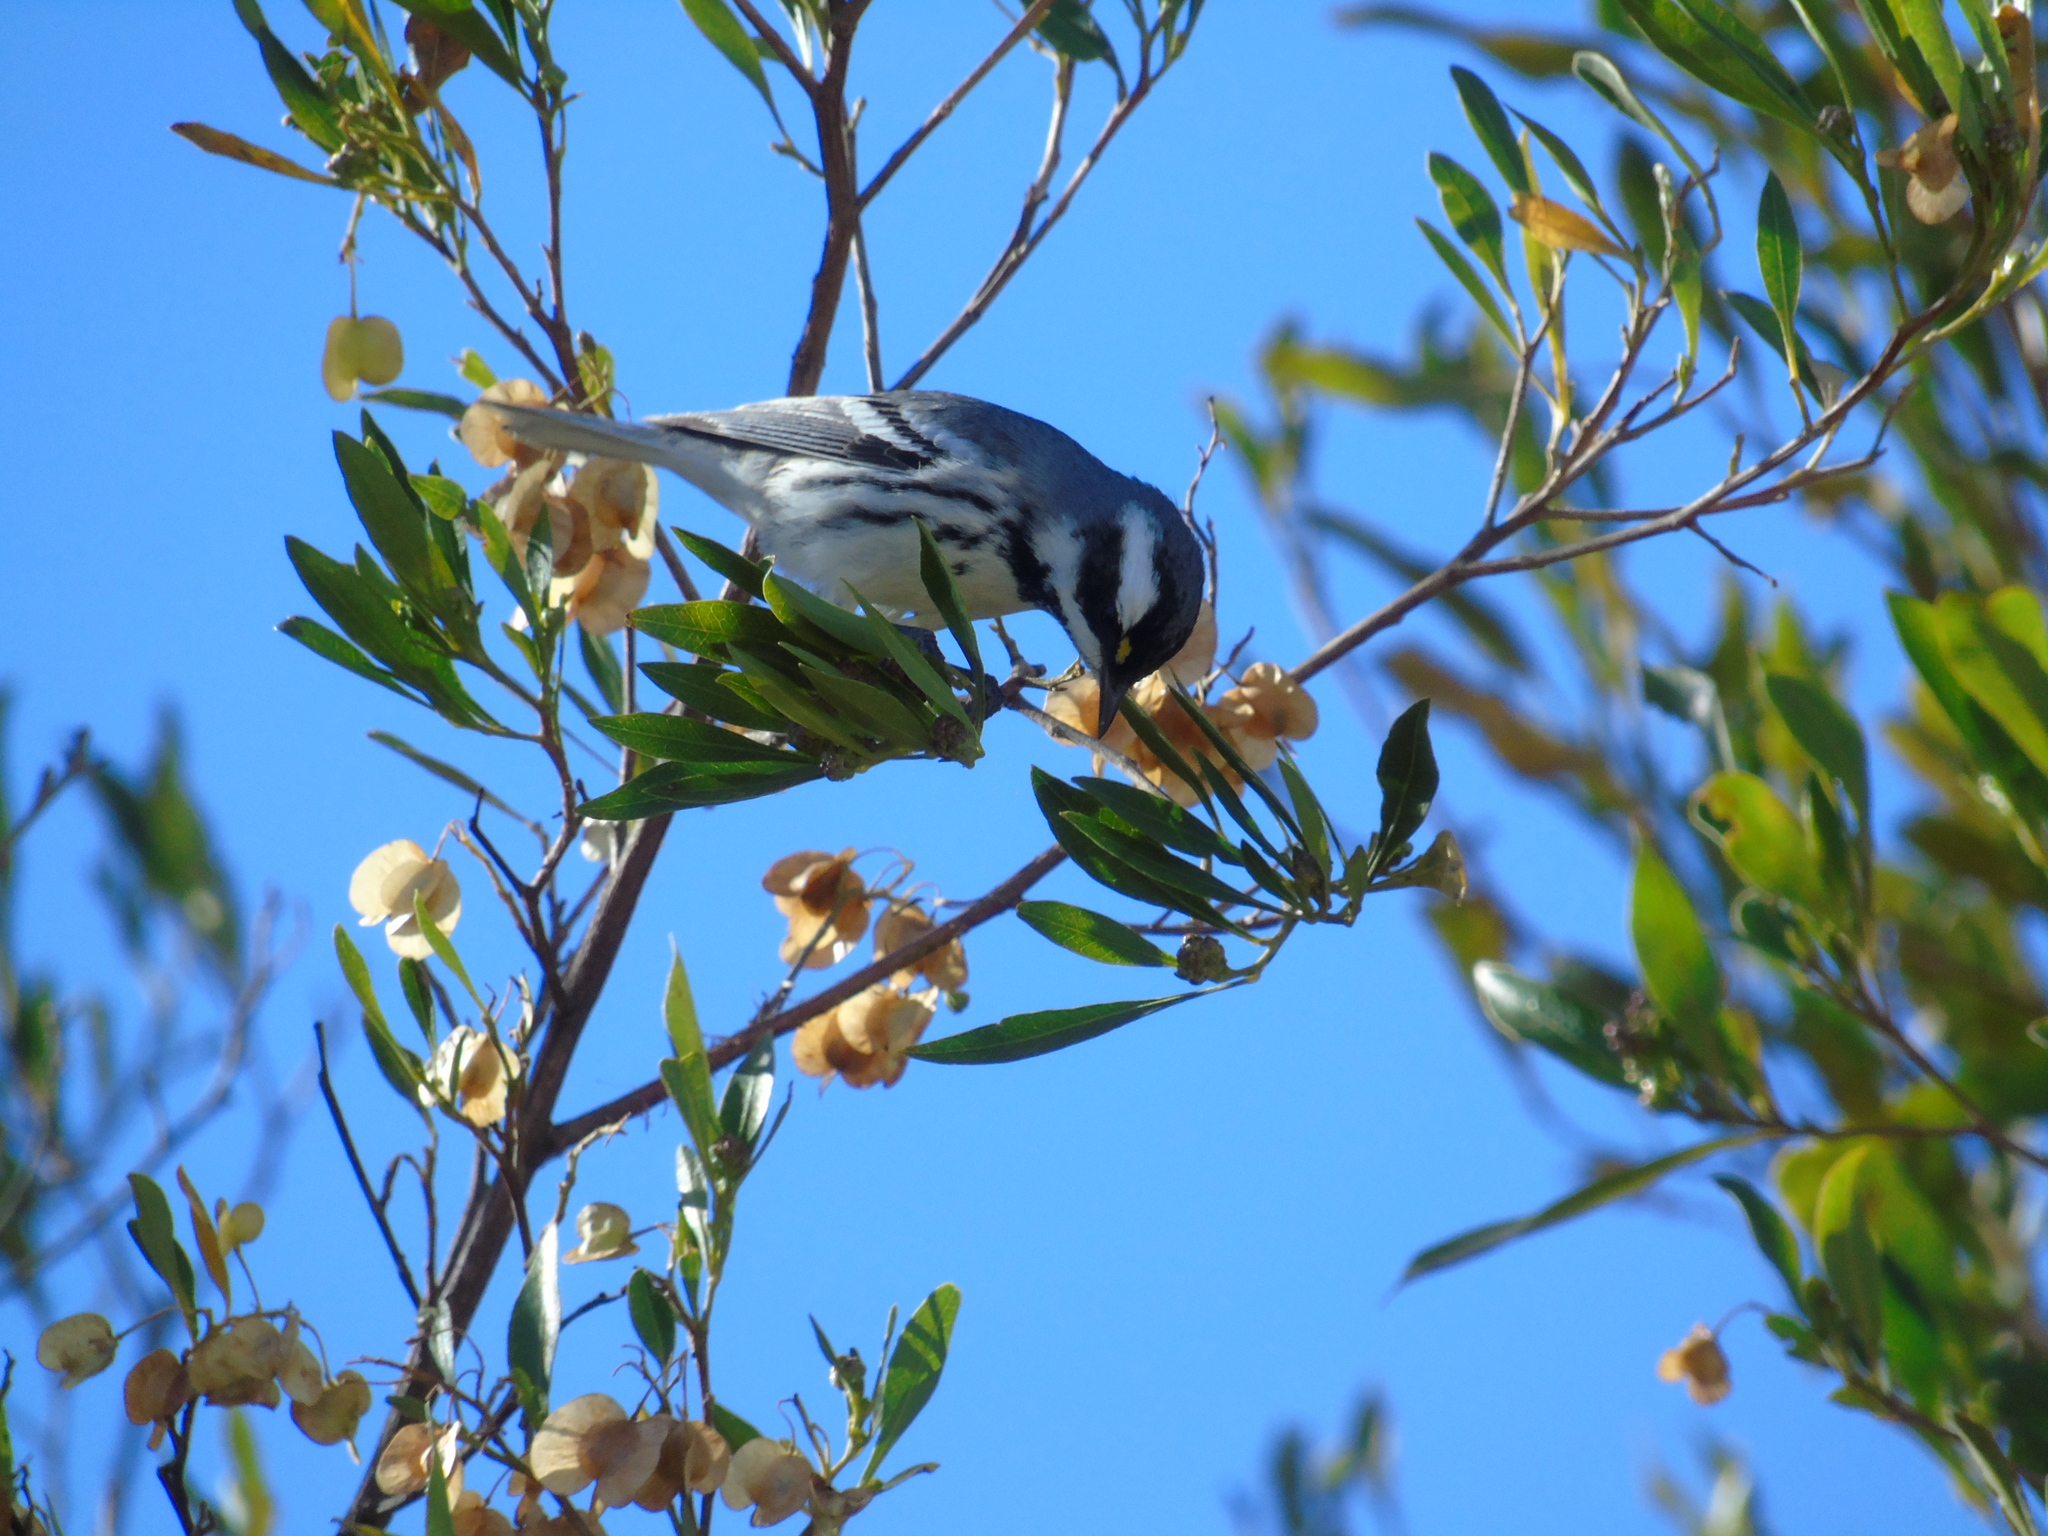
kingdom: Animalia
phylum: Chordata
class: Aves
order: Passeriformes
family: Parulidae
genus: Setophaga
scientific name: Setophaga nigrescens
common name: Black-throated gray warbler
